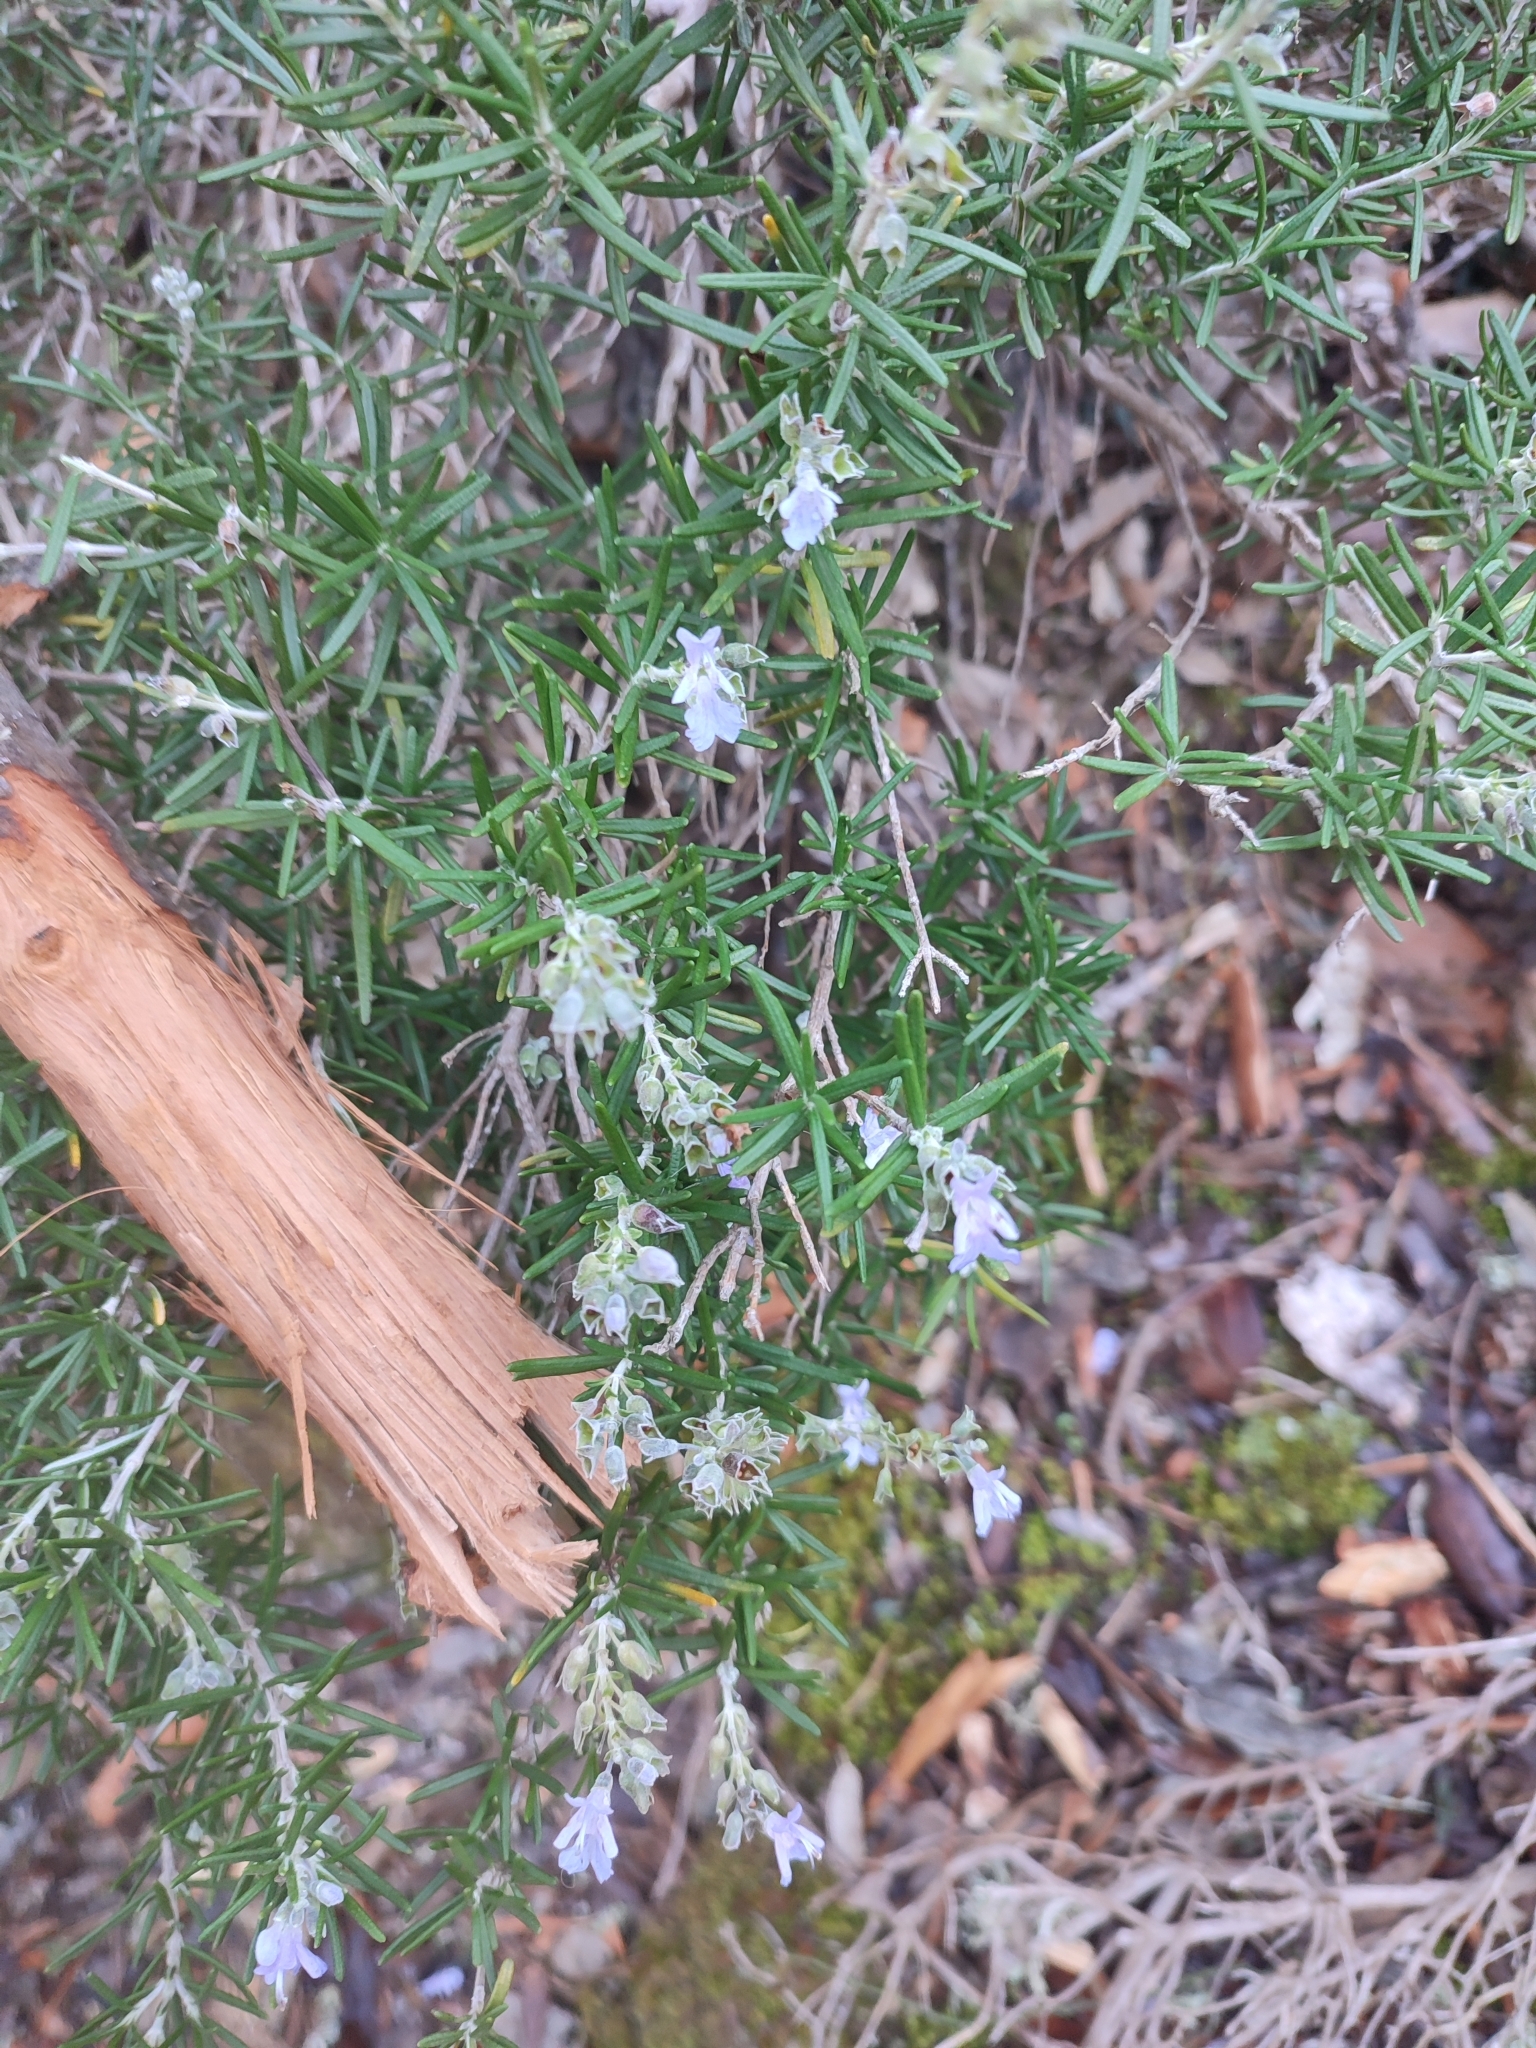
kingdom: Plantae
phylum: Tracheophyta
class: Magnoliopsida
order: Lamiales
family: Lamiaceae
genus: Salvia
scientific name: Salvia rosmarinus
